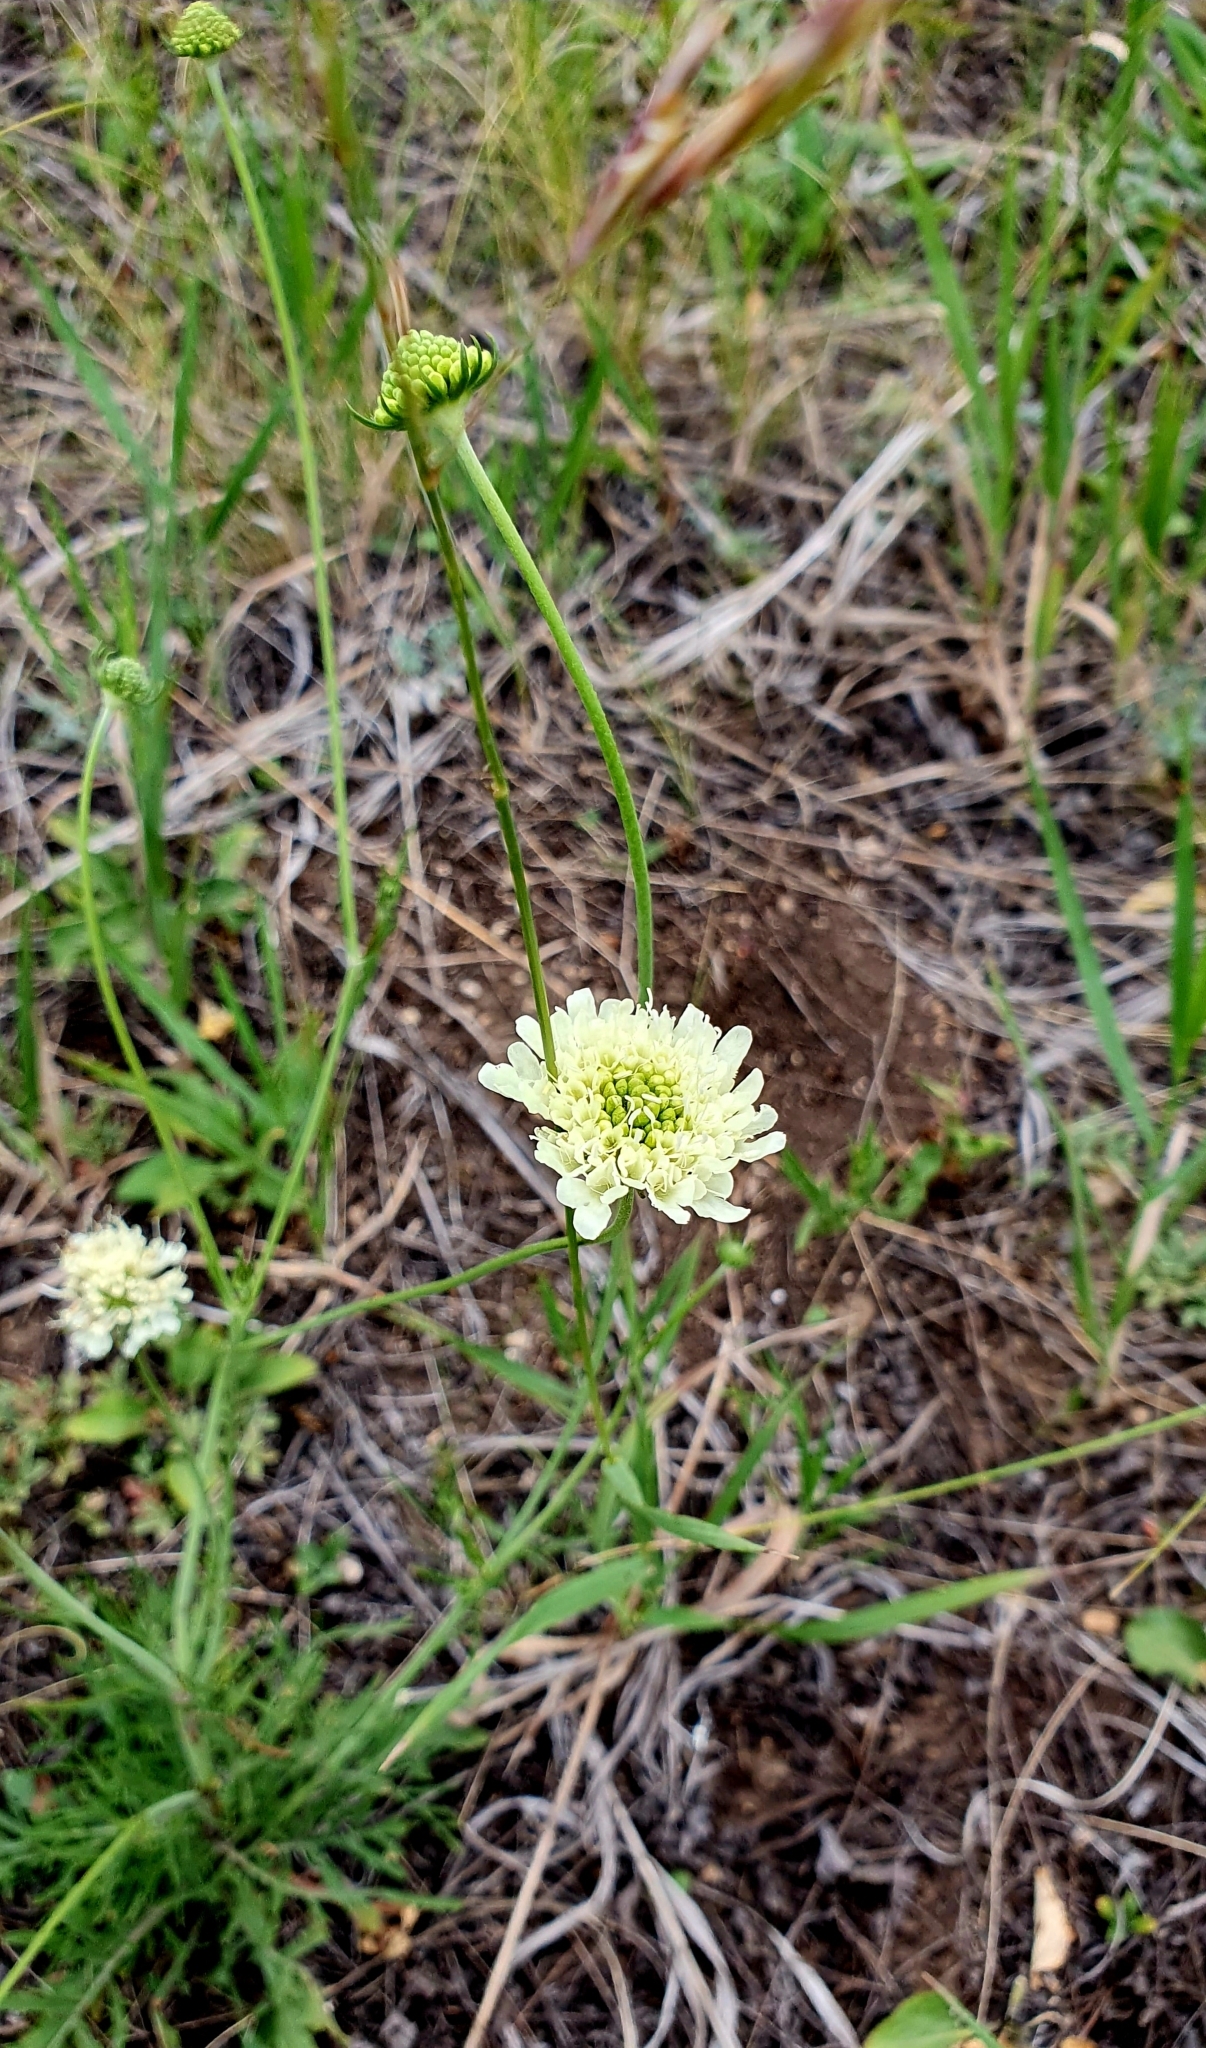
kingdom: Plantae
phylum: Tracheophyta
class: Magnoliopsida
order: Dipsacales
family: Caprifoliaceae
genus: Scabiosa
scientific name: Scabiosa ochroleuca
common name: Cream pincushions
